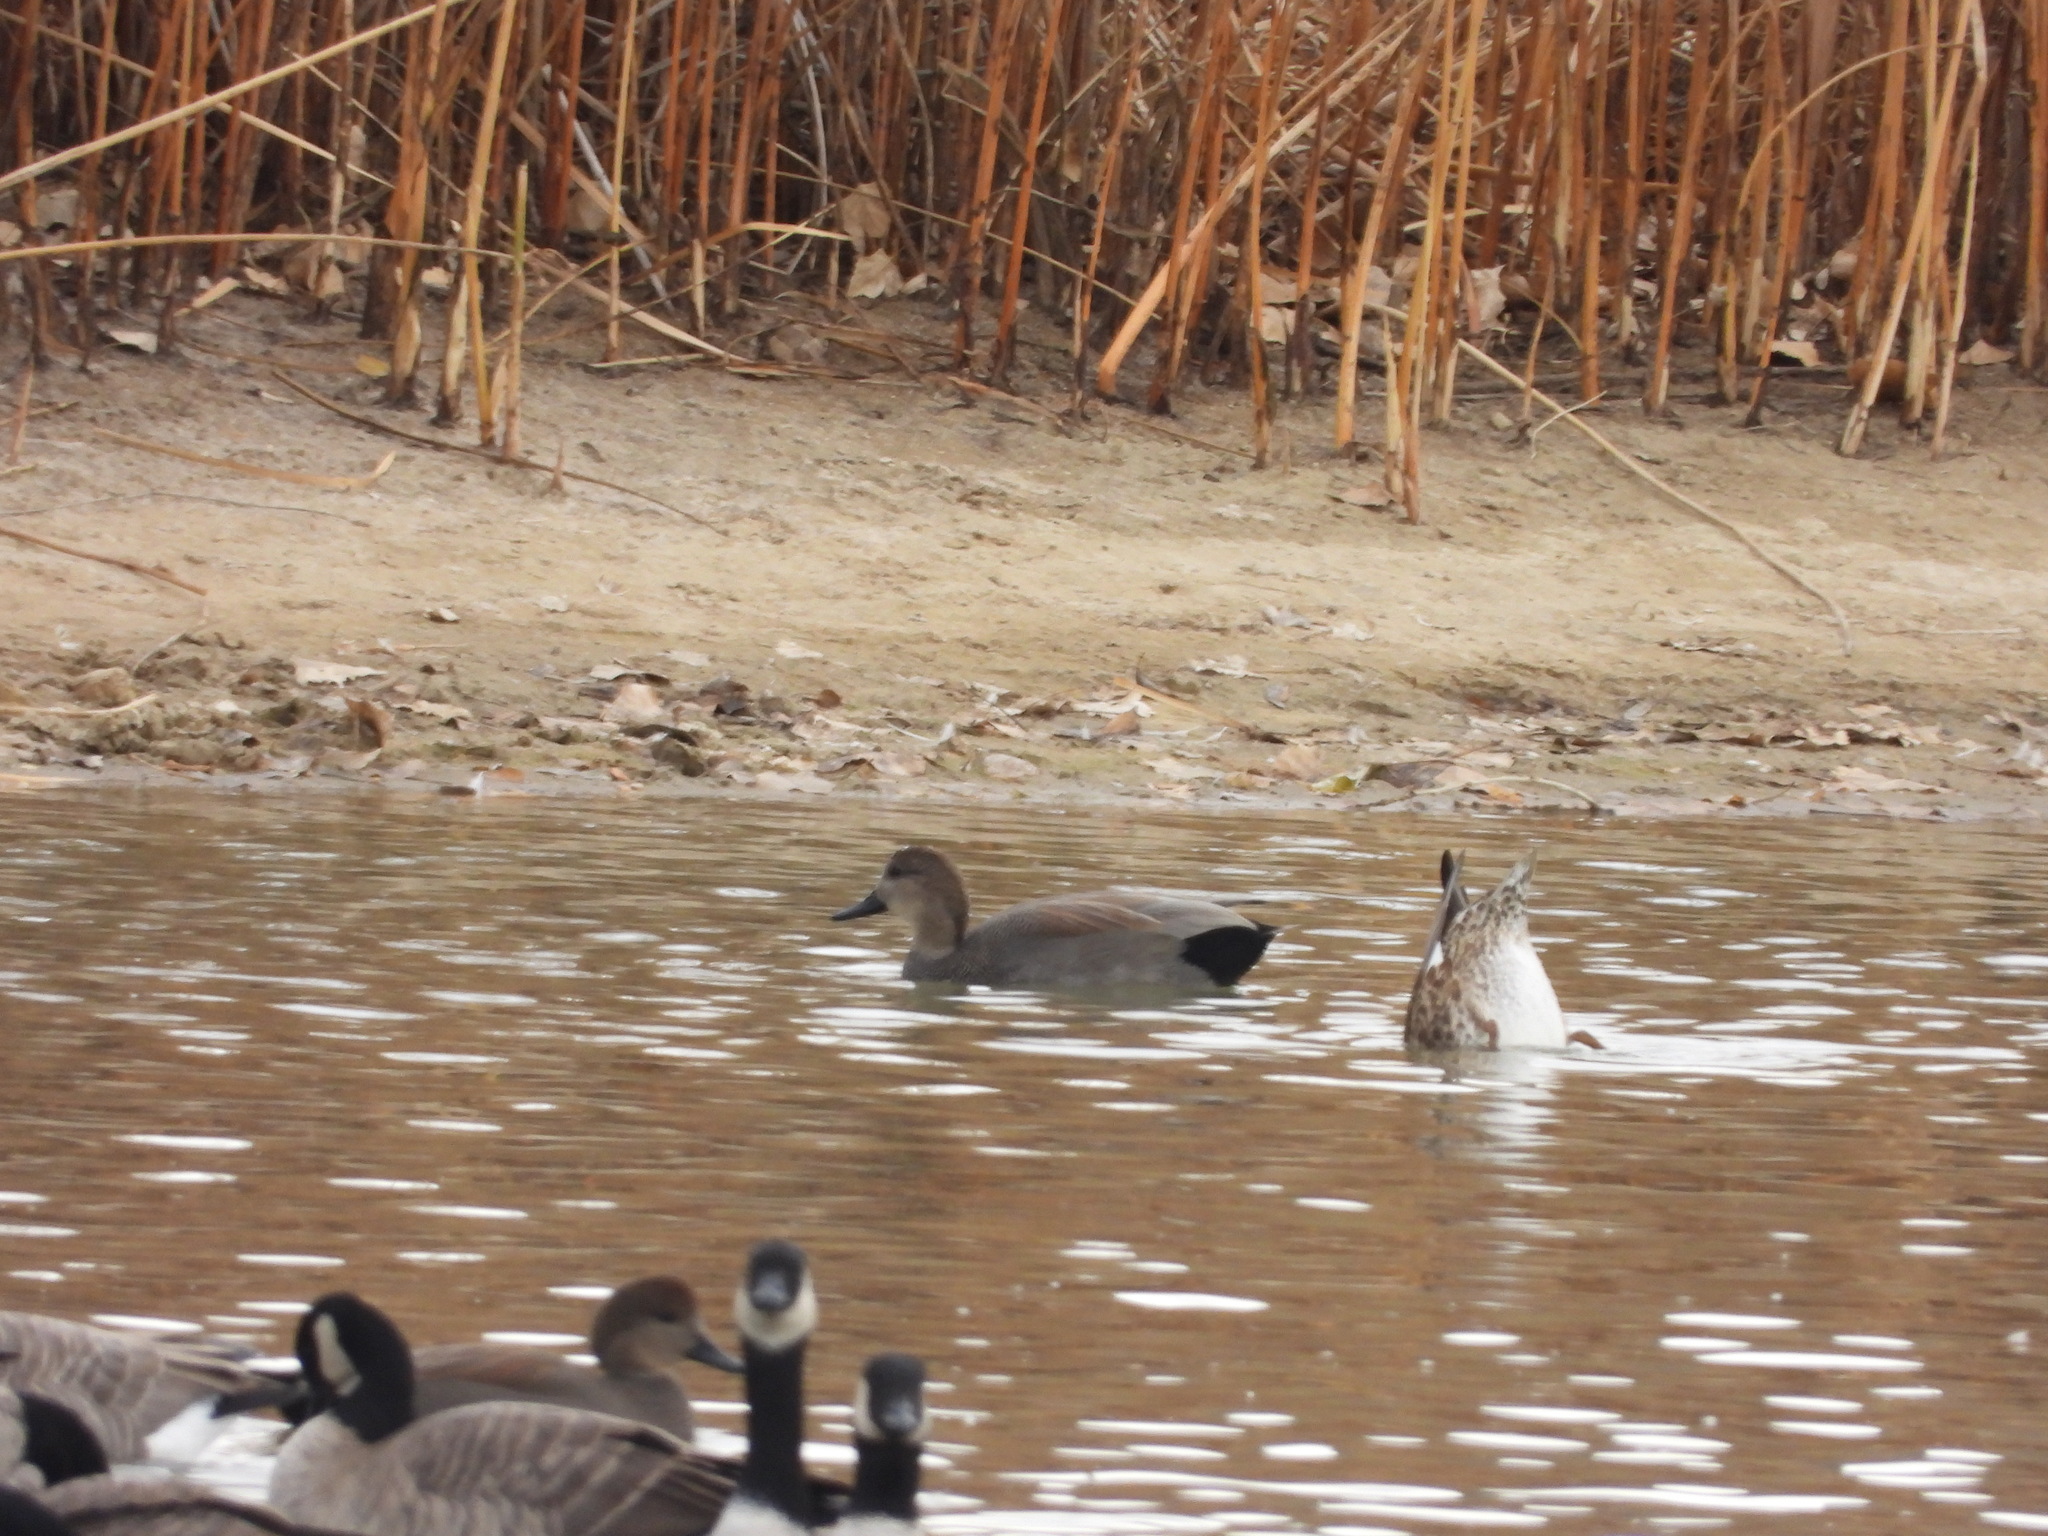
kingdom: Animalia
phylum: Chordata
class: Aves
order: Anseriformes
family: Anatidae
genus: Mareca
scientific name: Mareca strepera
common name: Gadwall
